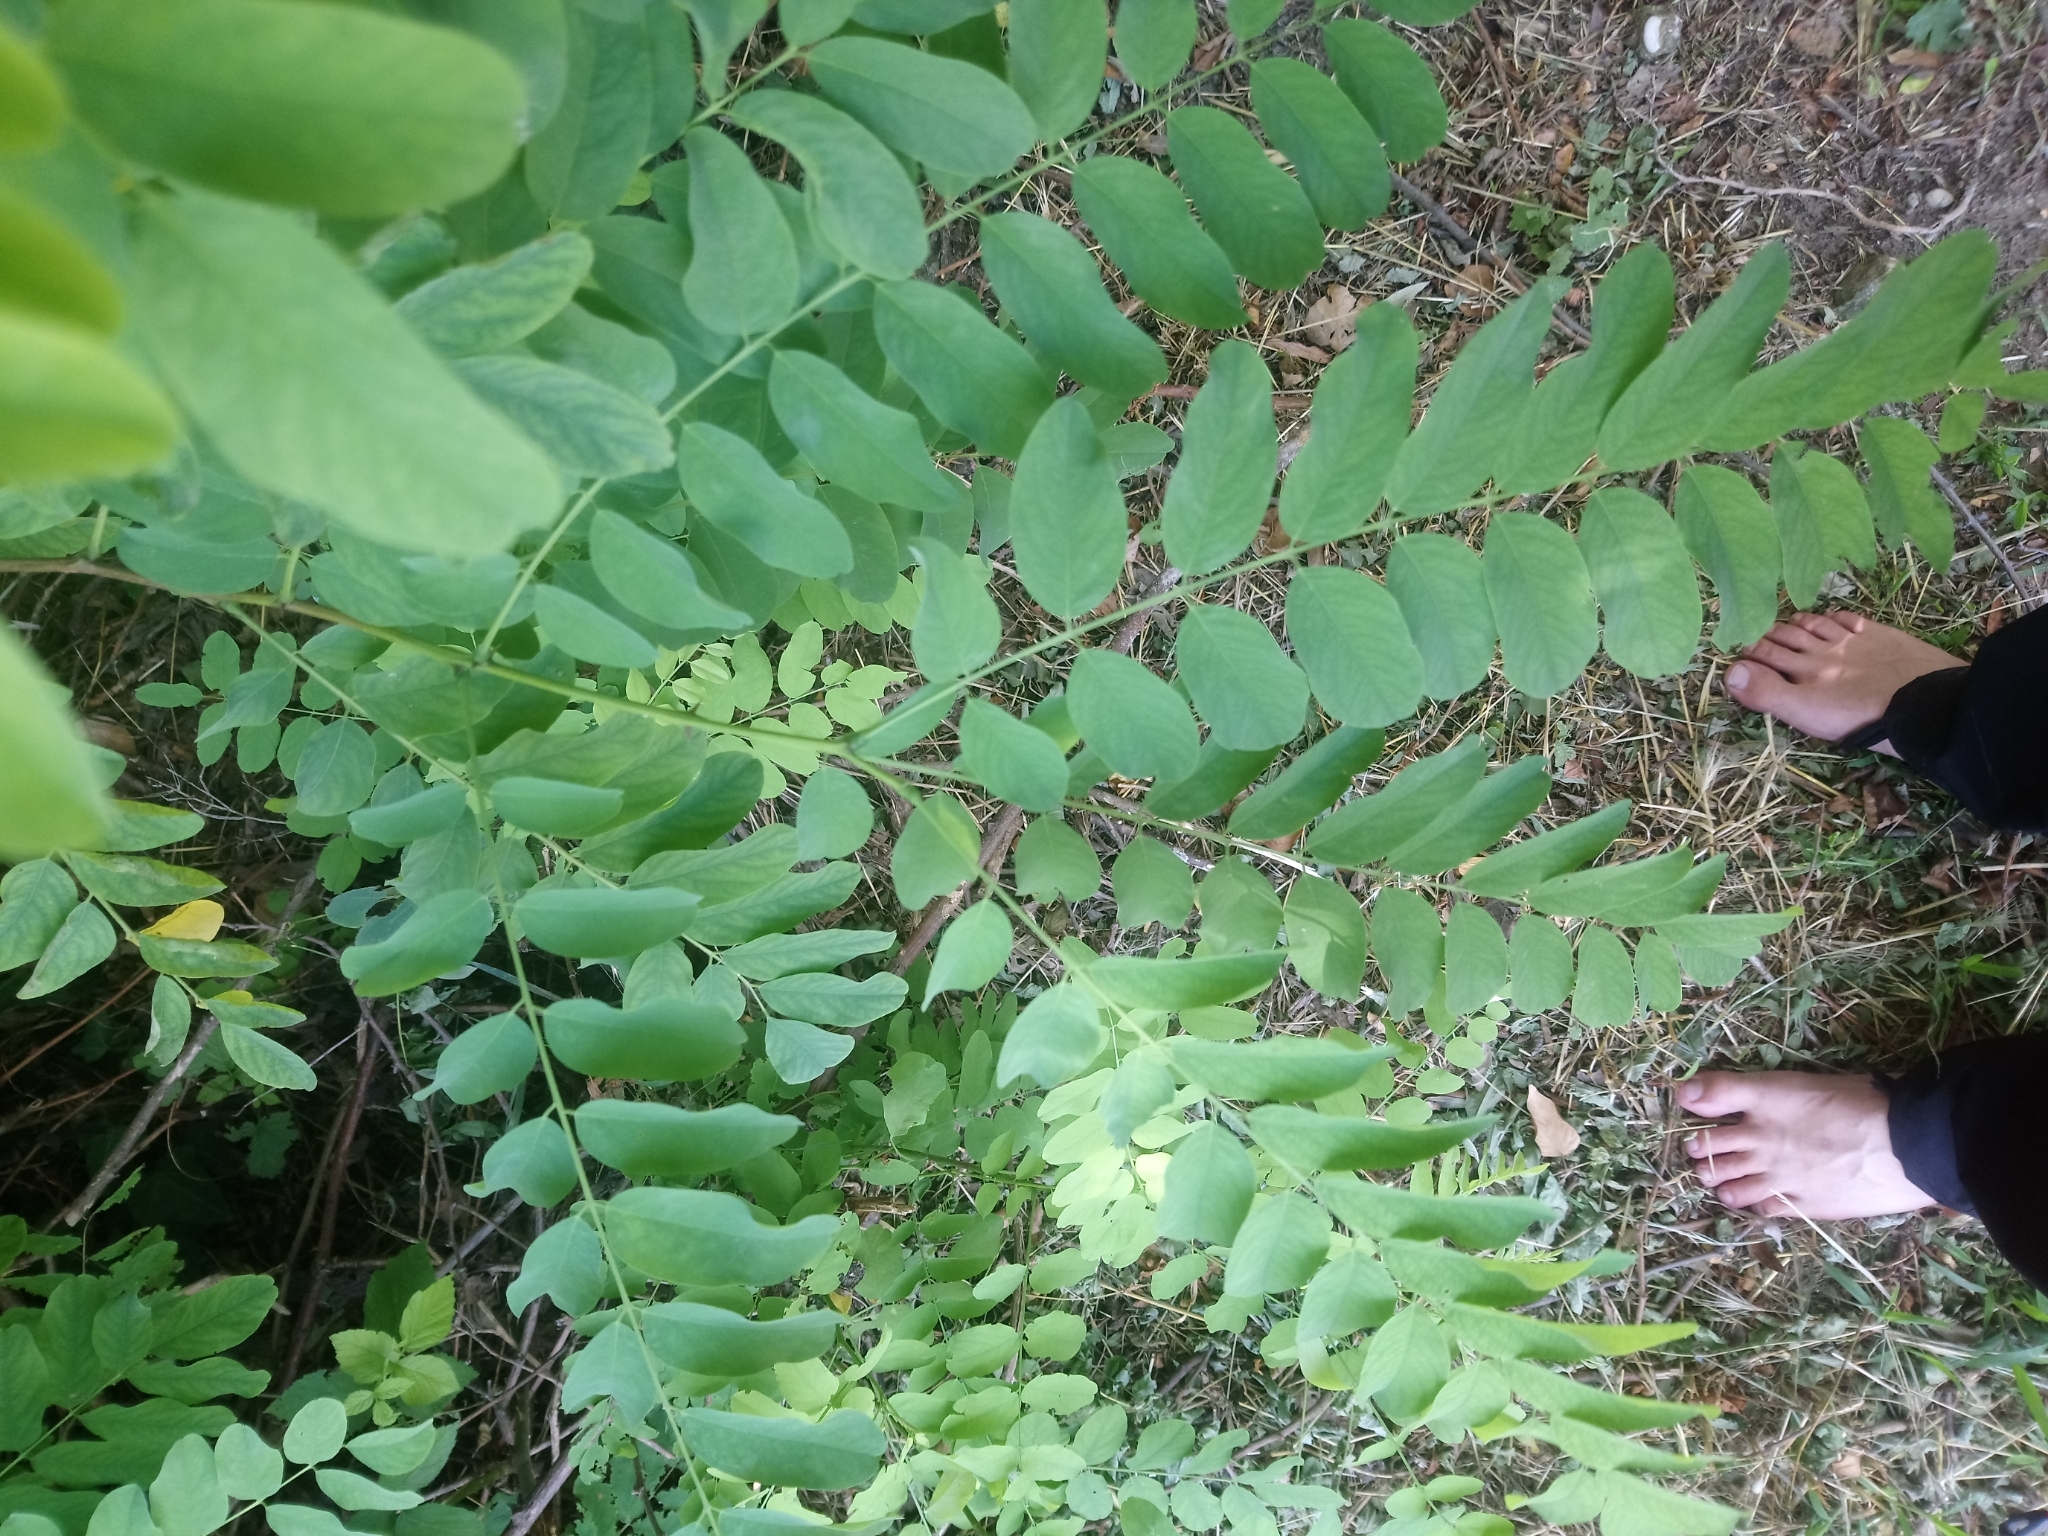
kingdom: Plantae
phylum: Tracheophyta
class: Magnoliopsida
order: Fabales
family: Fabaceae
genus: Robinia
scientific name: Robinia pseudoacacia
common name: Black locust
